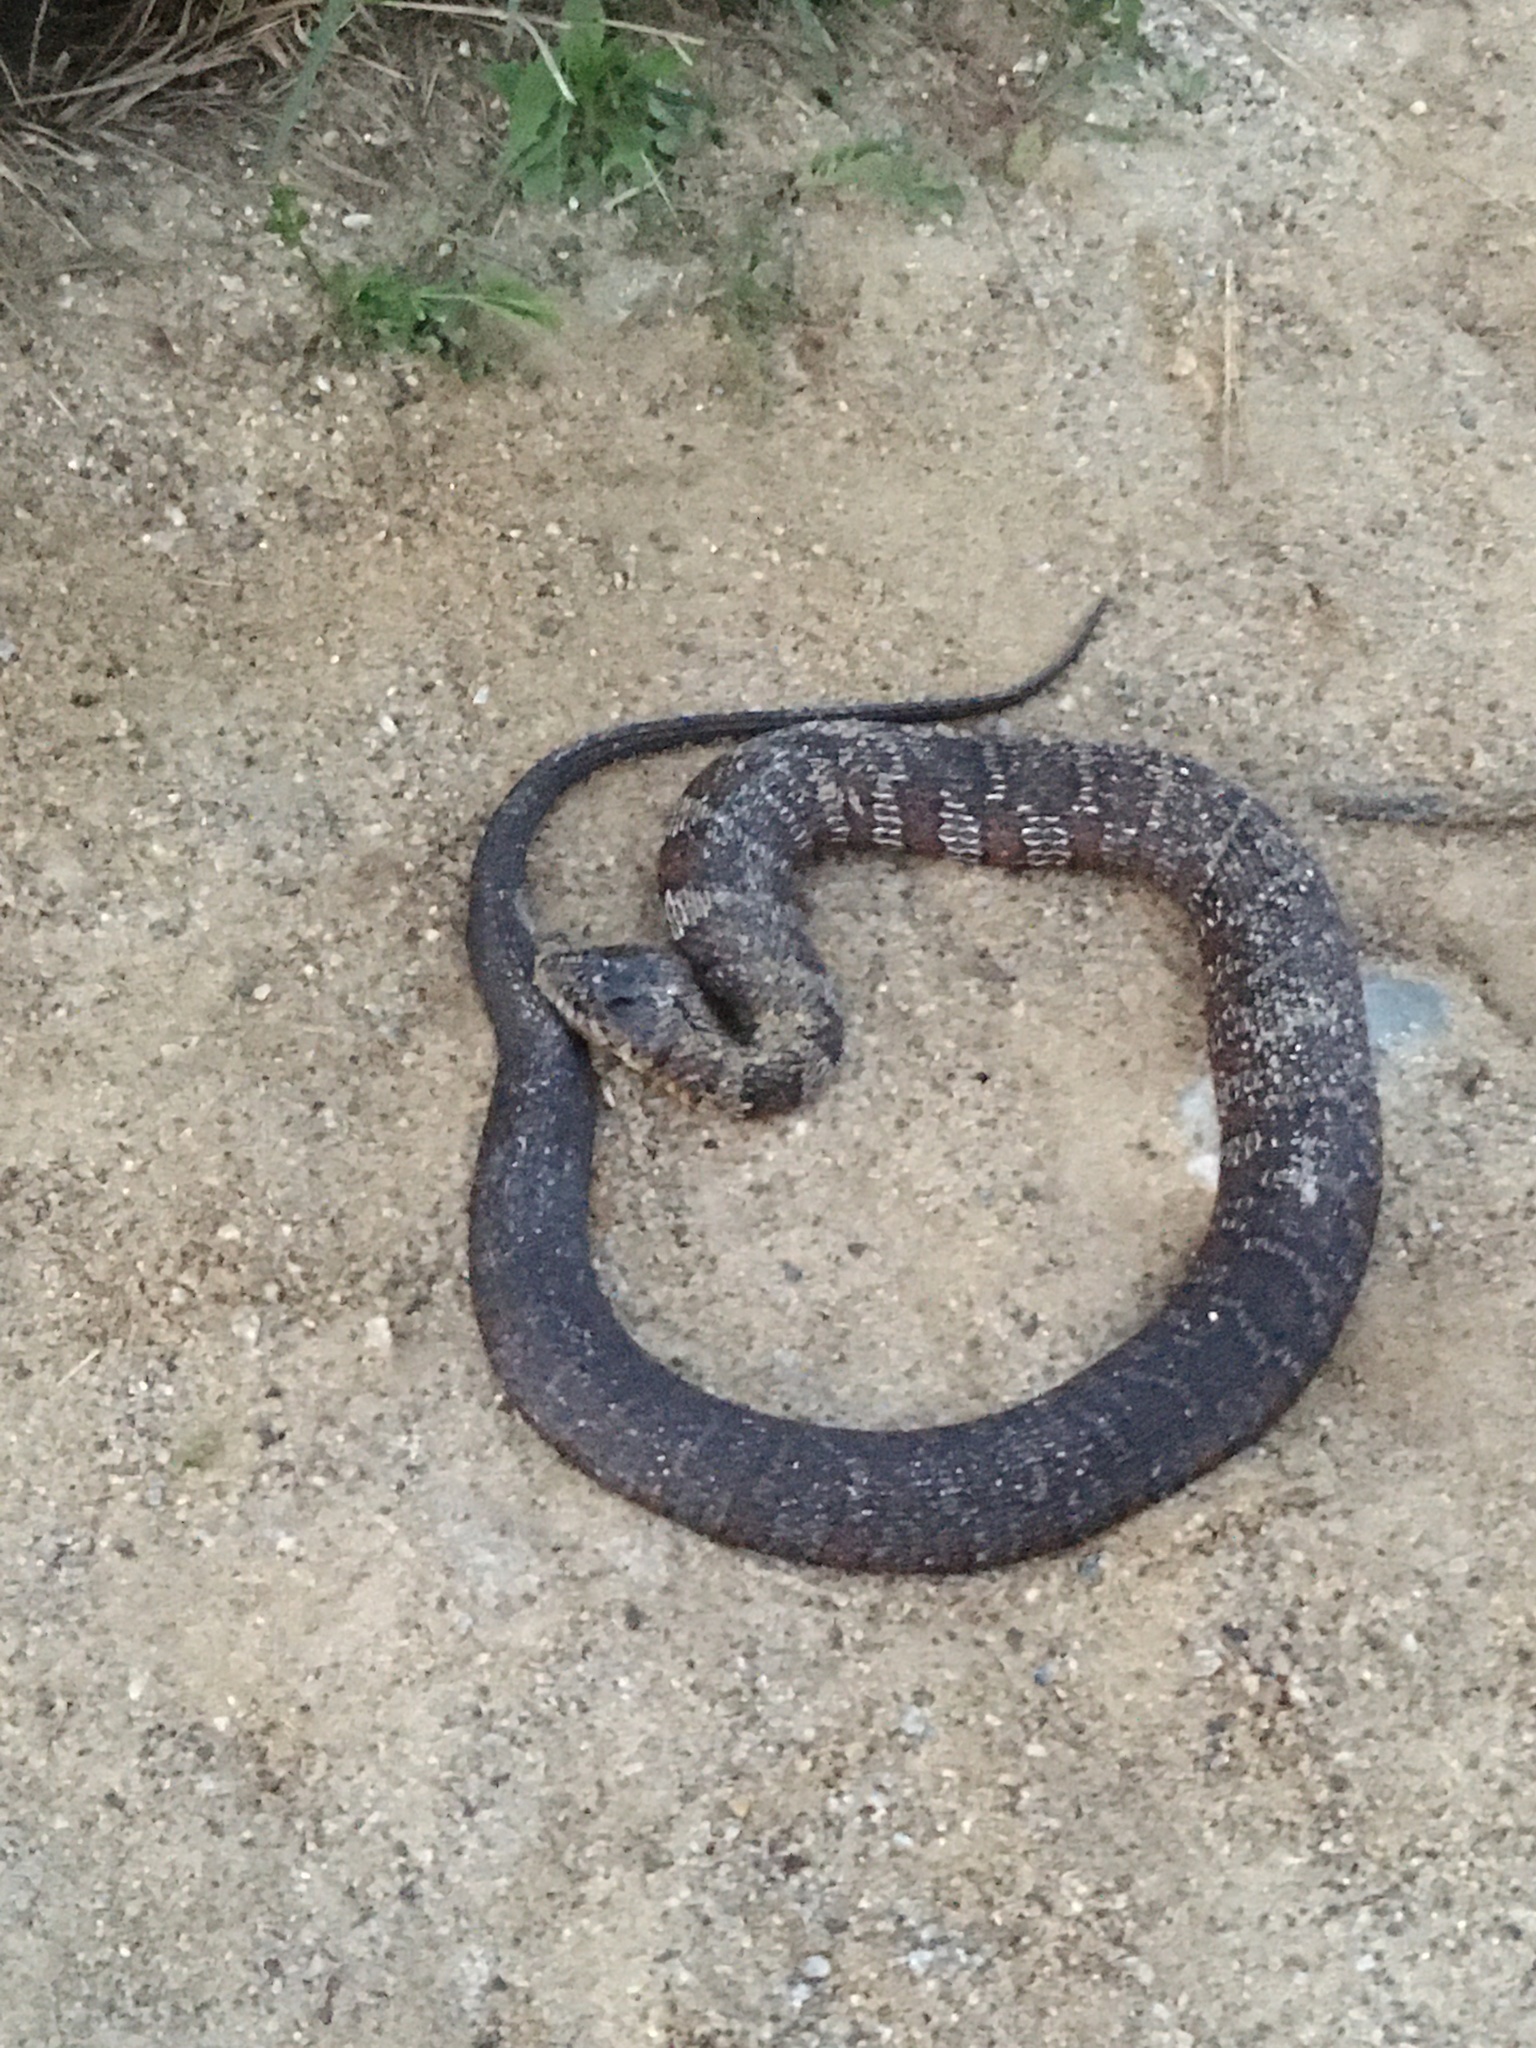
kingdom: Animalia
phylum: Chordata
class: Squamata
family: Colubridae
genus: Nerodia
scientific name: Nerodia sipedon
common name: Northern water snake
